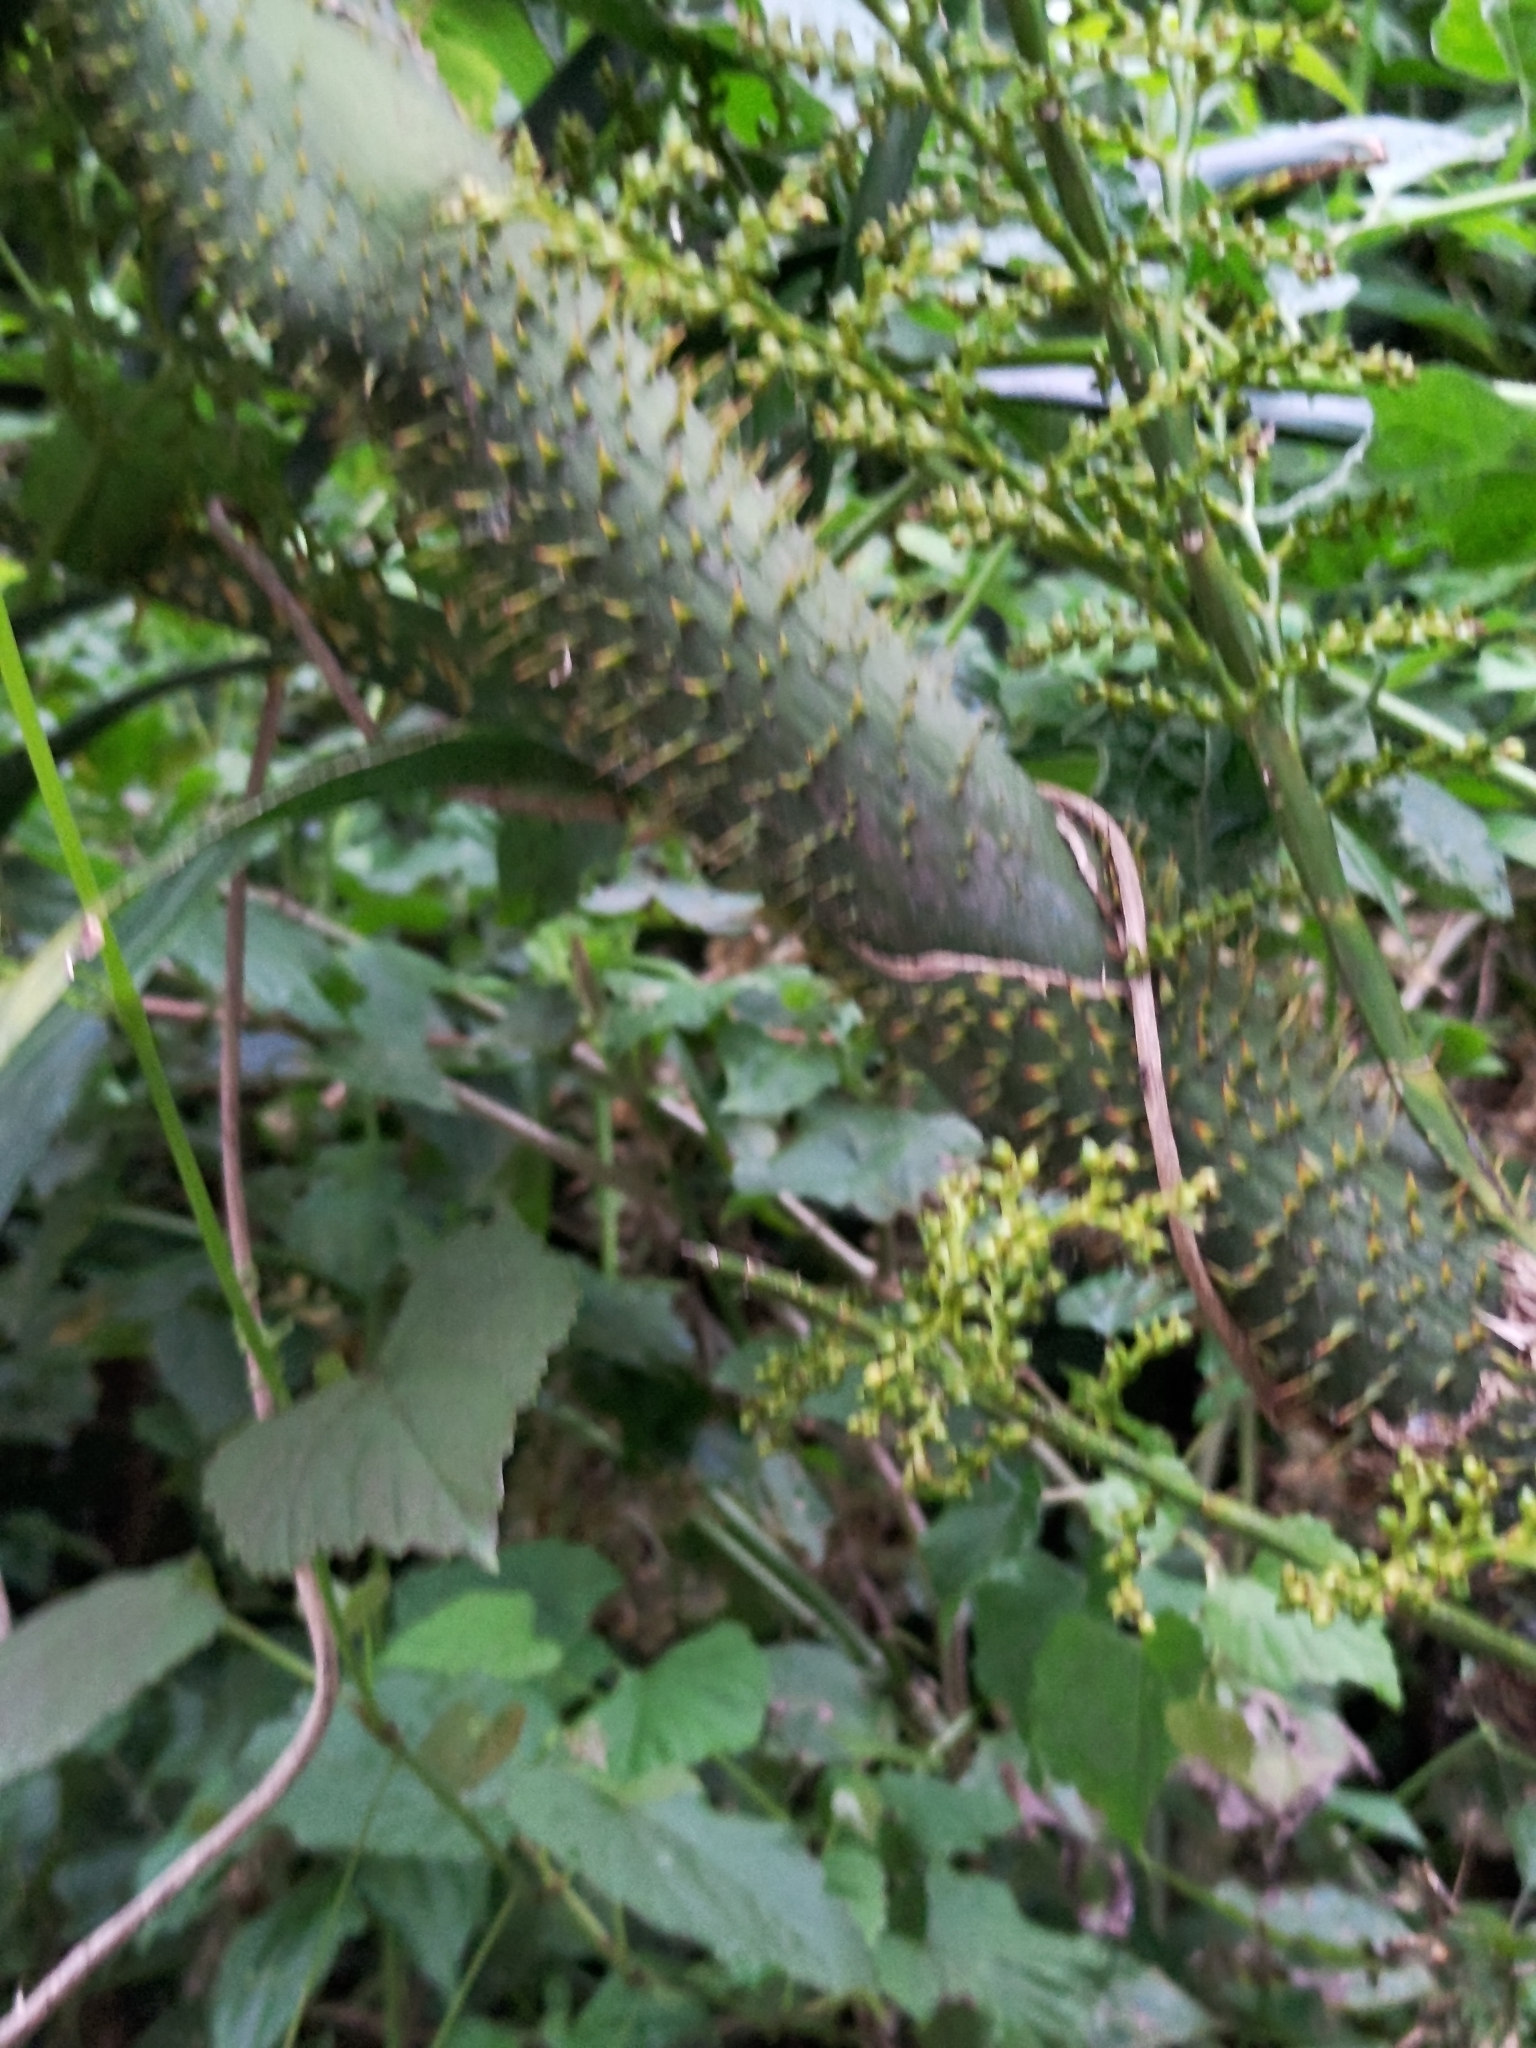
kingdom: Plantae
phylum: Tracheophyta
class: Liliopsida
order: Arecales
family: Arecaceae
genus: Calamus
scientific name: Calamus formosanus
